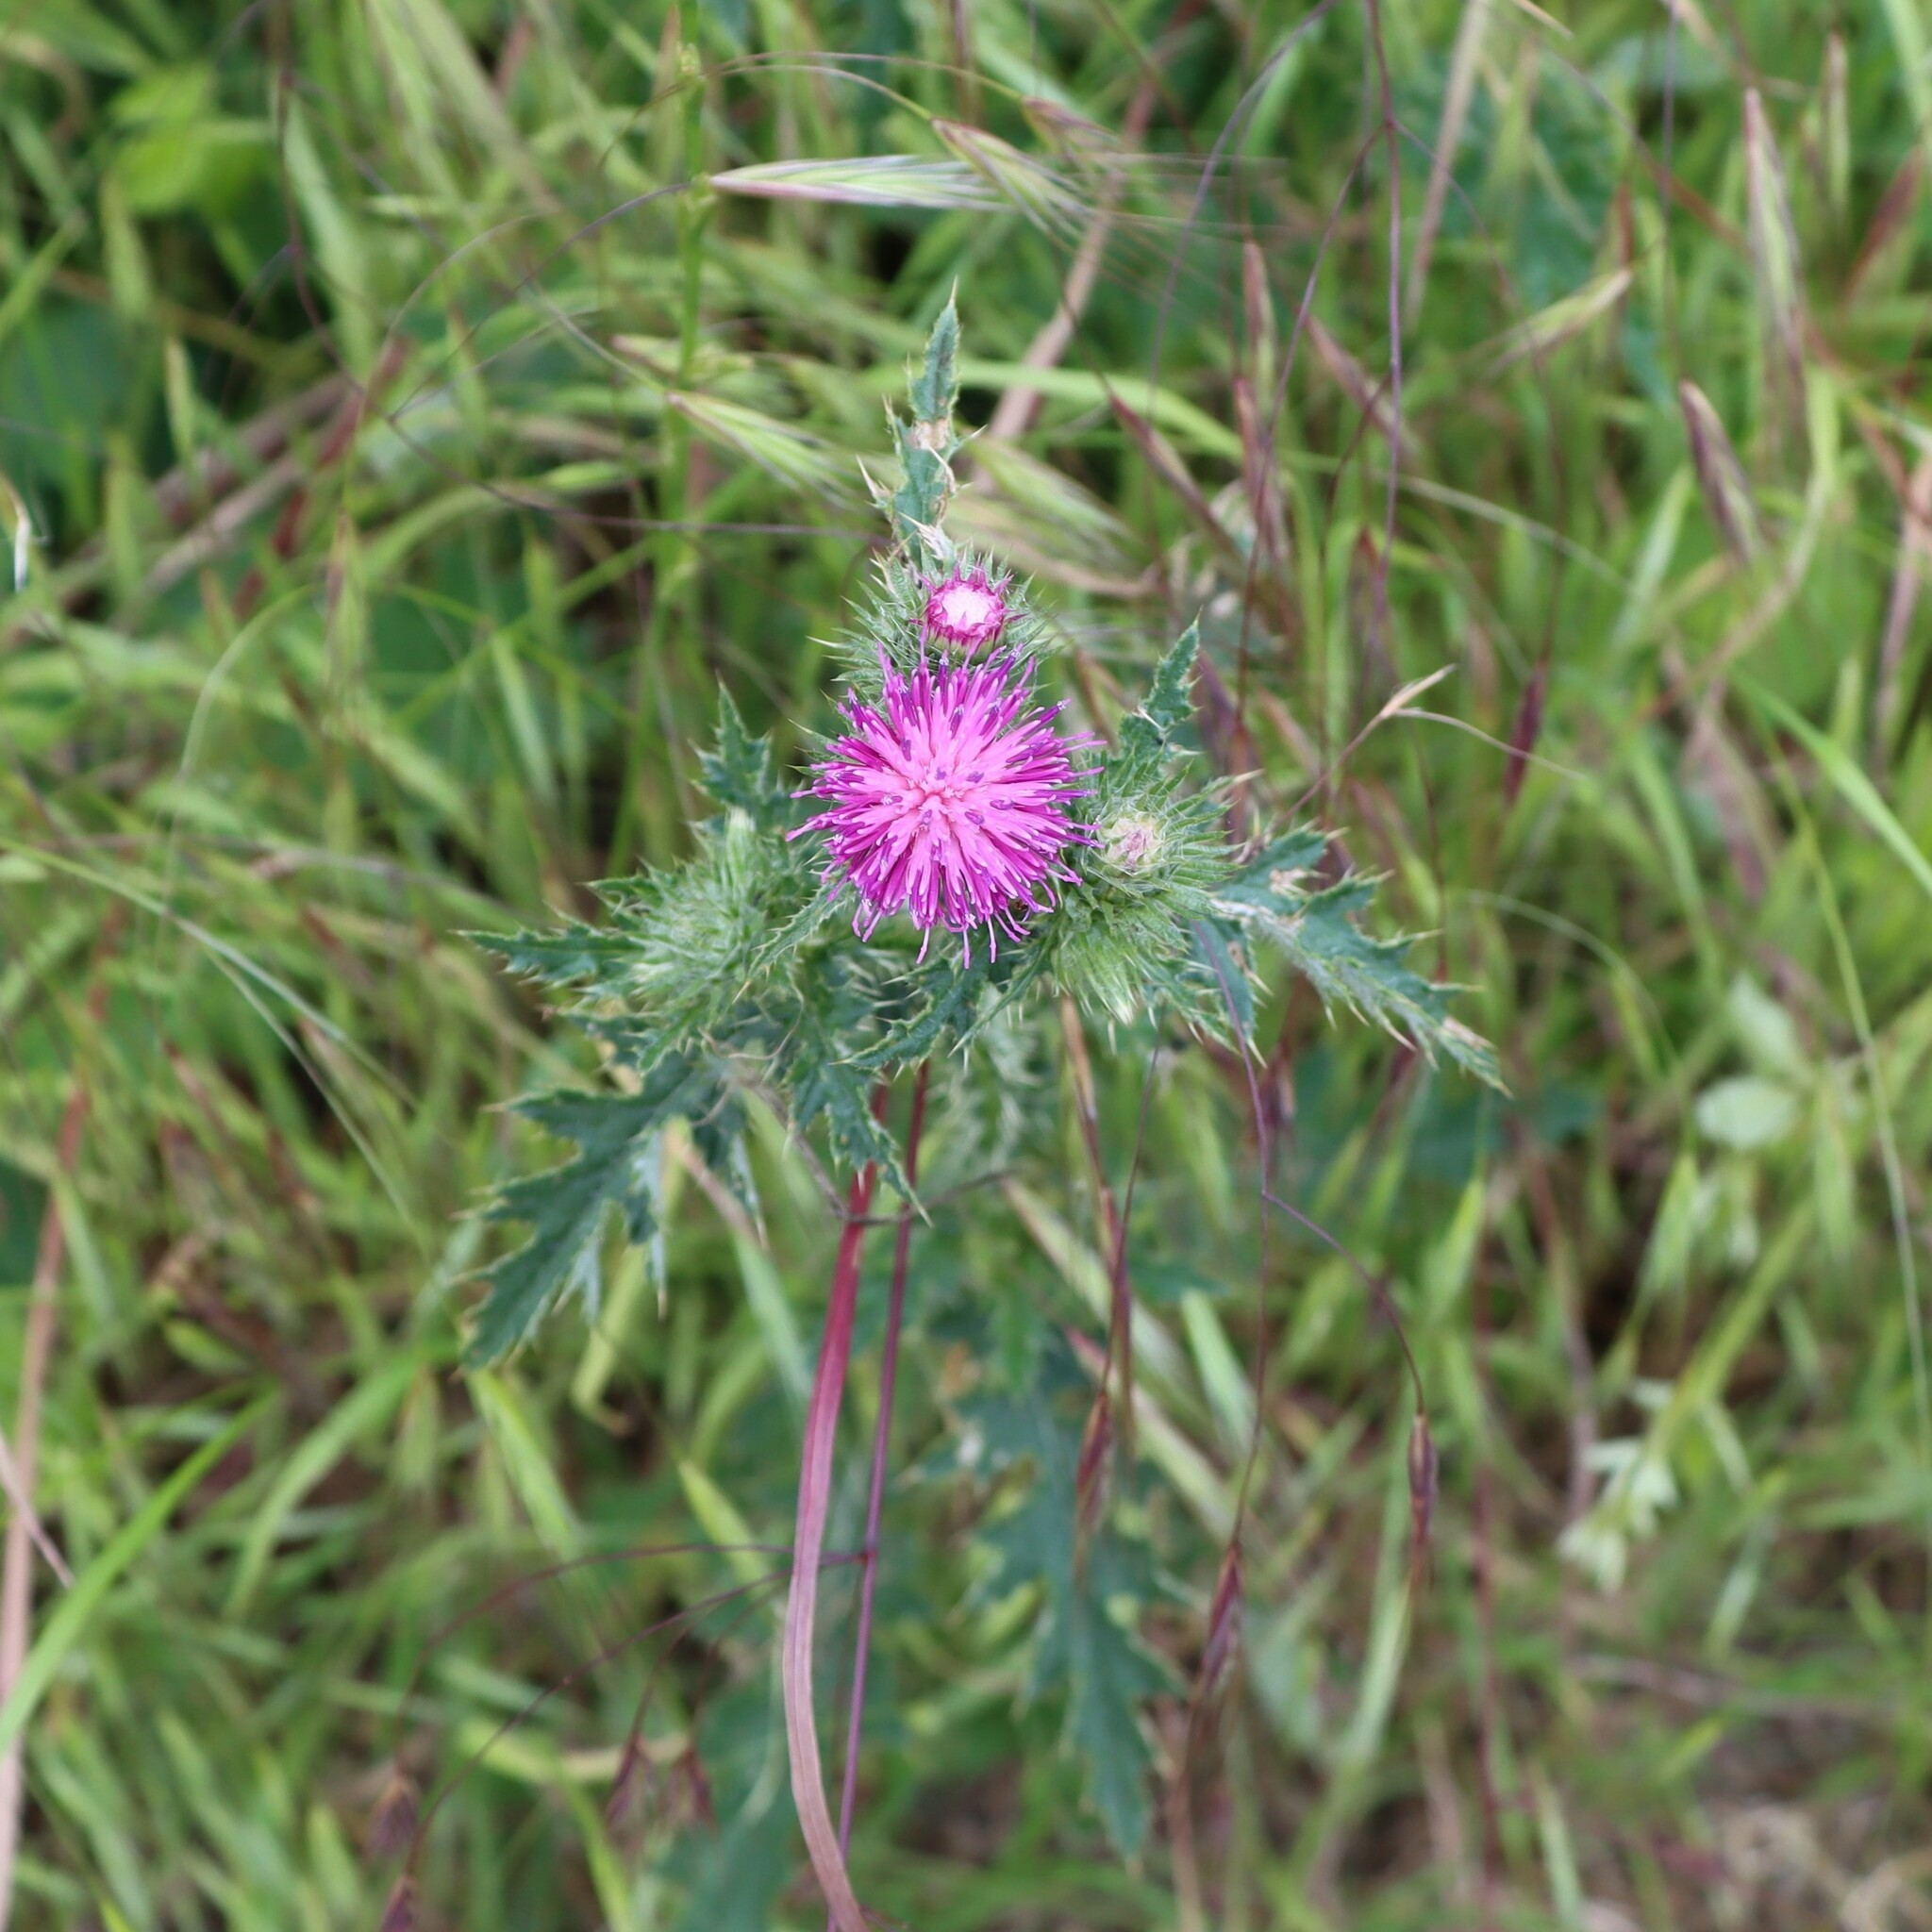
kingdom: Plantae
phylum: Tracheophyta
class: Magnoliopsida
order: Asterales
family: Asteraceae
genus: Carduus
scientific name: Carduus crispus
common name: Welted thistle
